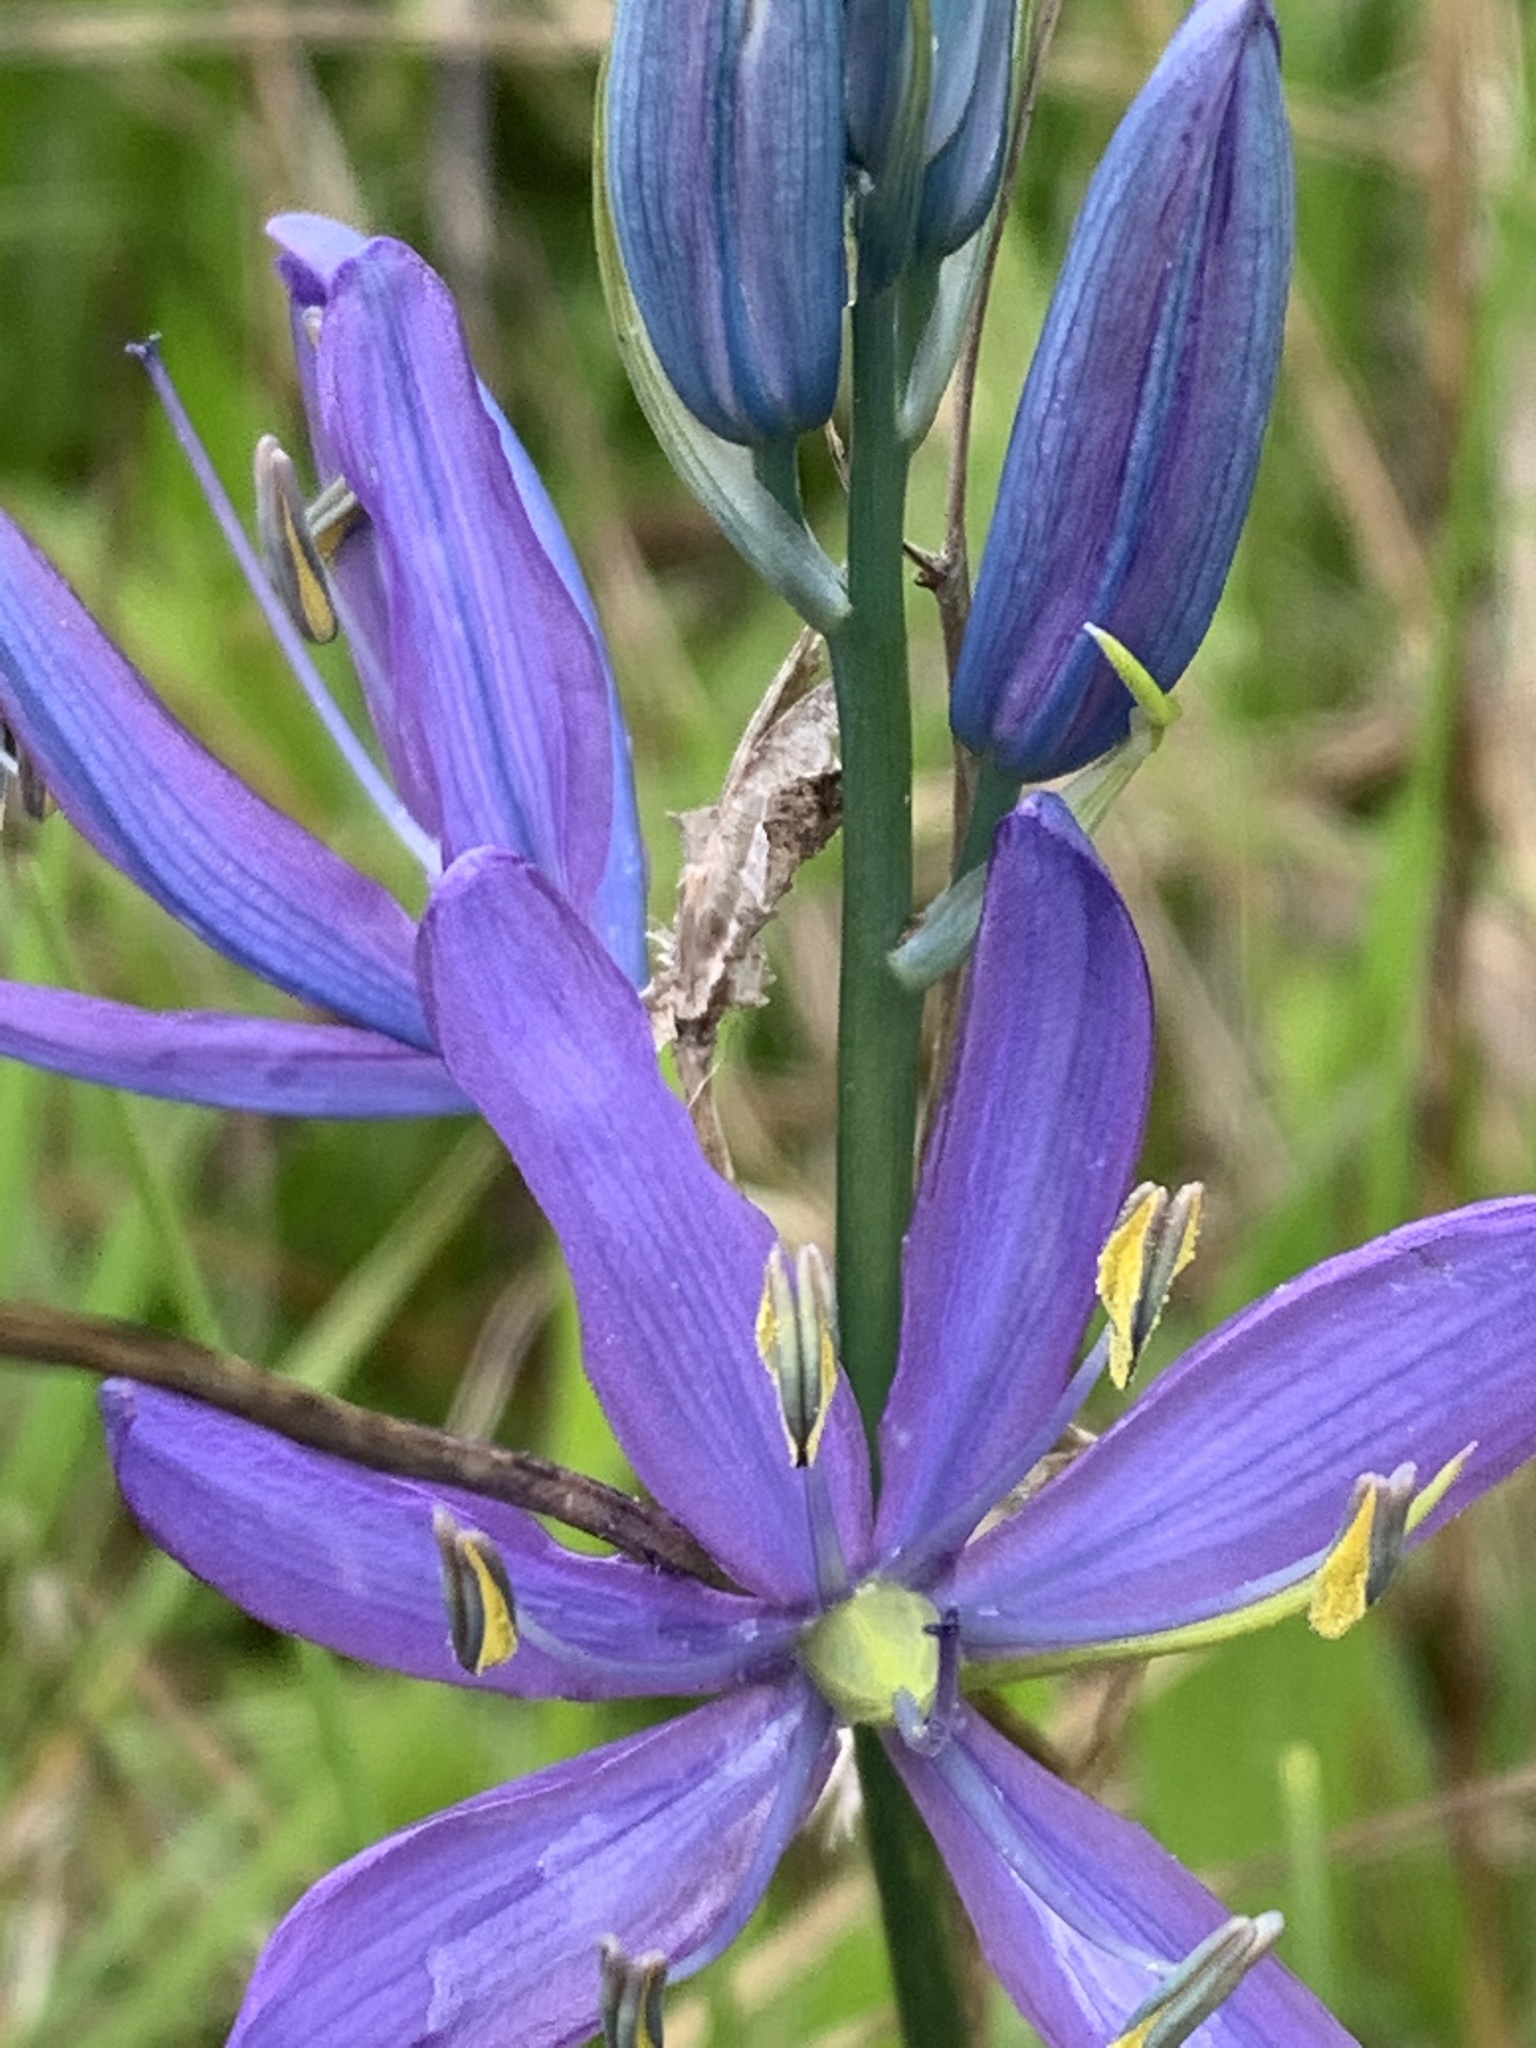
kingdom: Plantae
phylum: Tracheophyta
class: Liliopsida
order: Asparagales
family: Asparagaceae
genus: Camassia
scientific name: Camassia quamash
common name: Common camas
